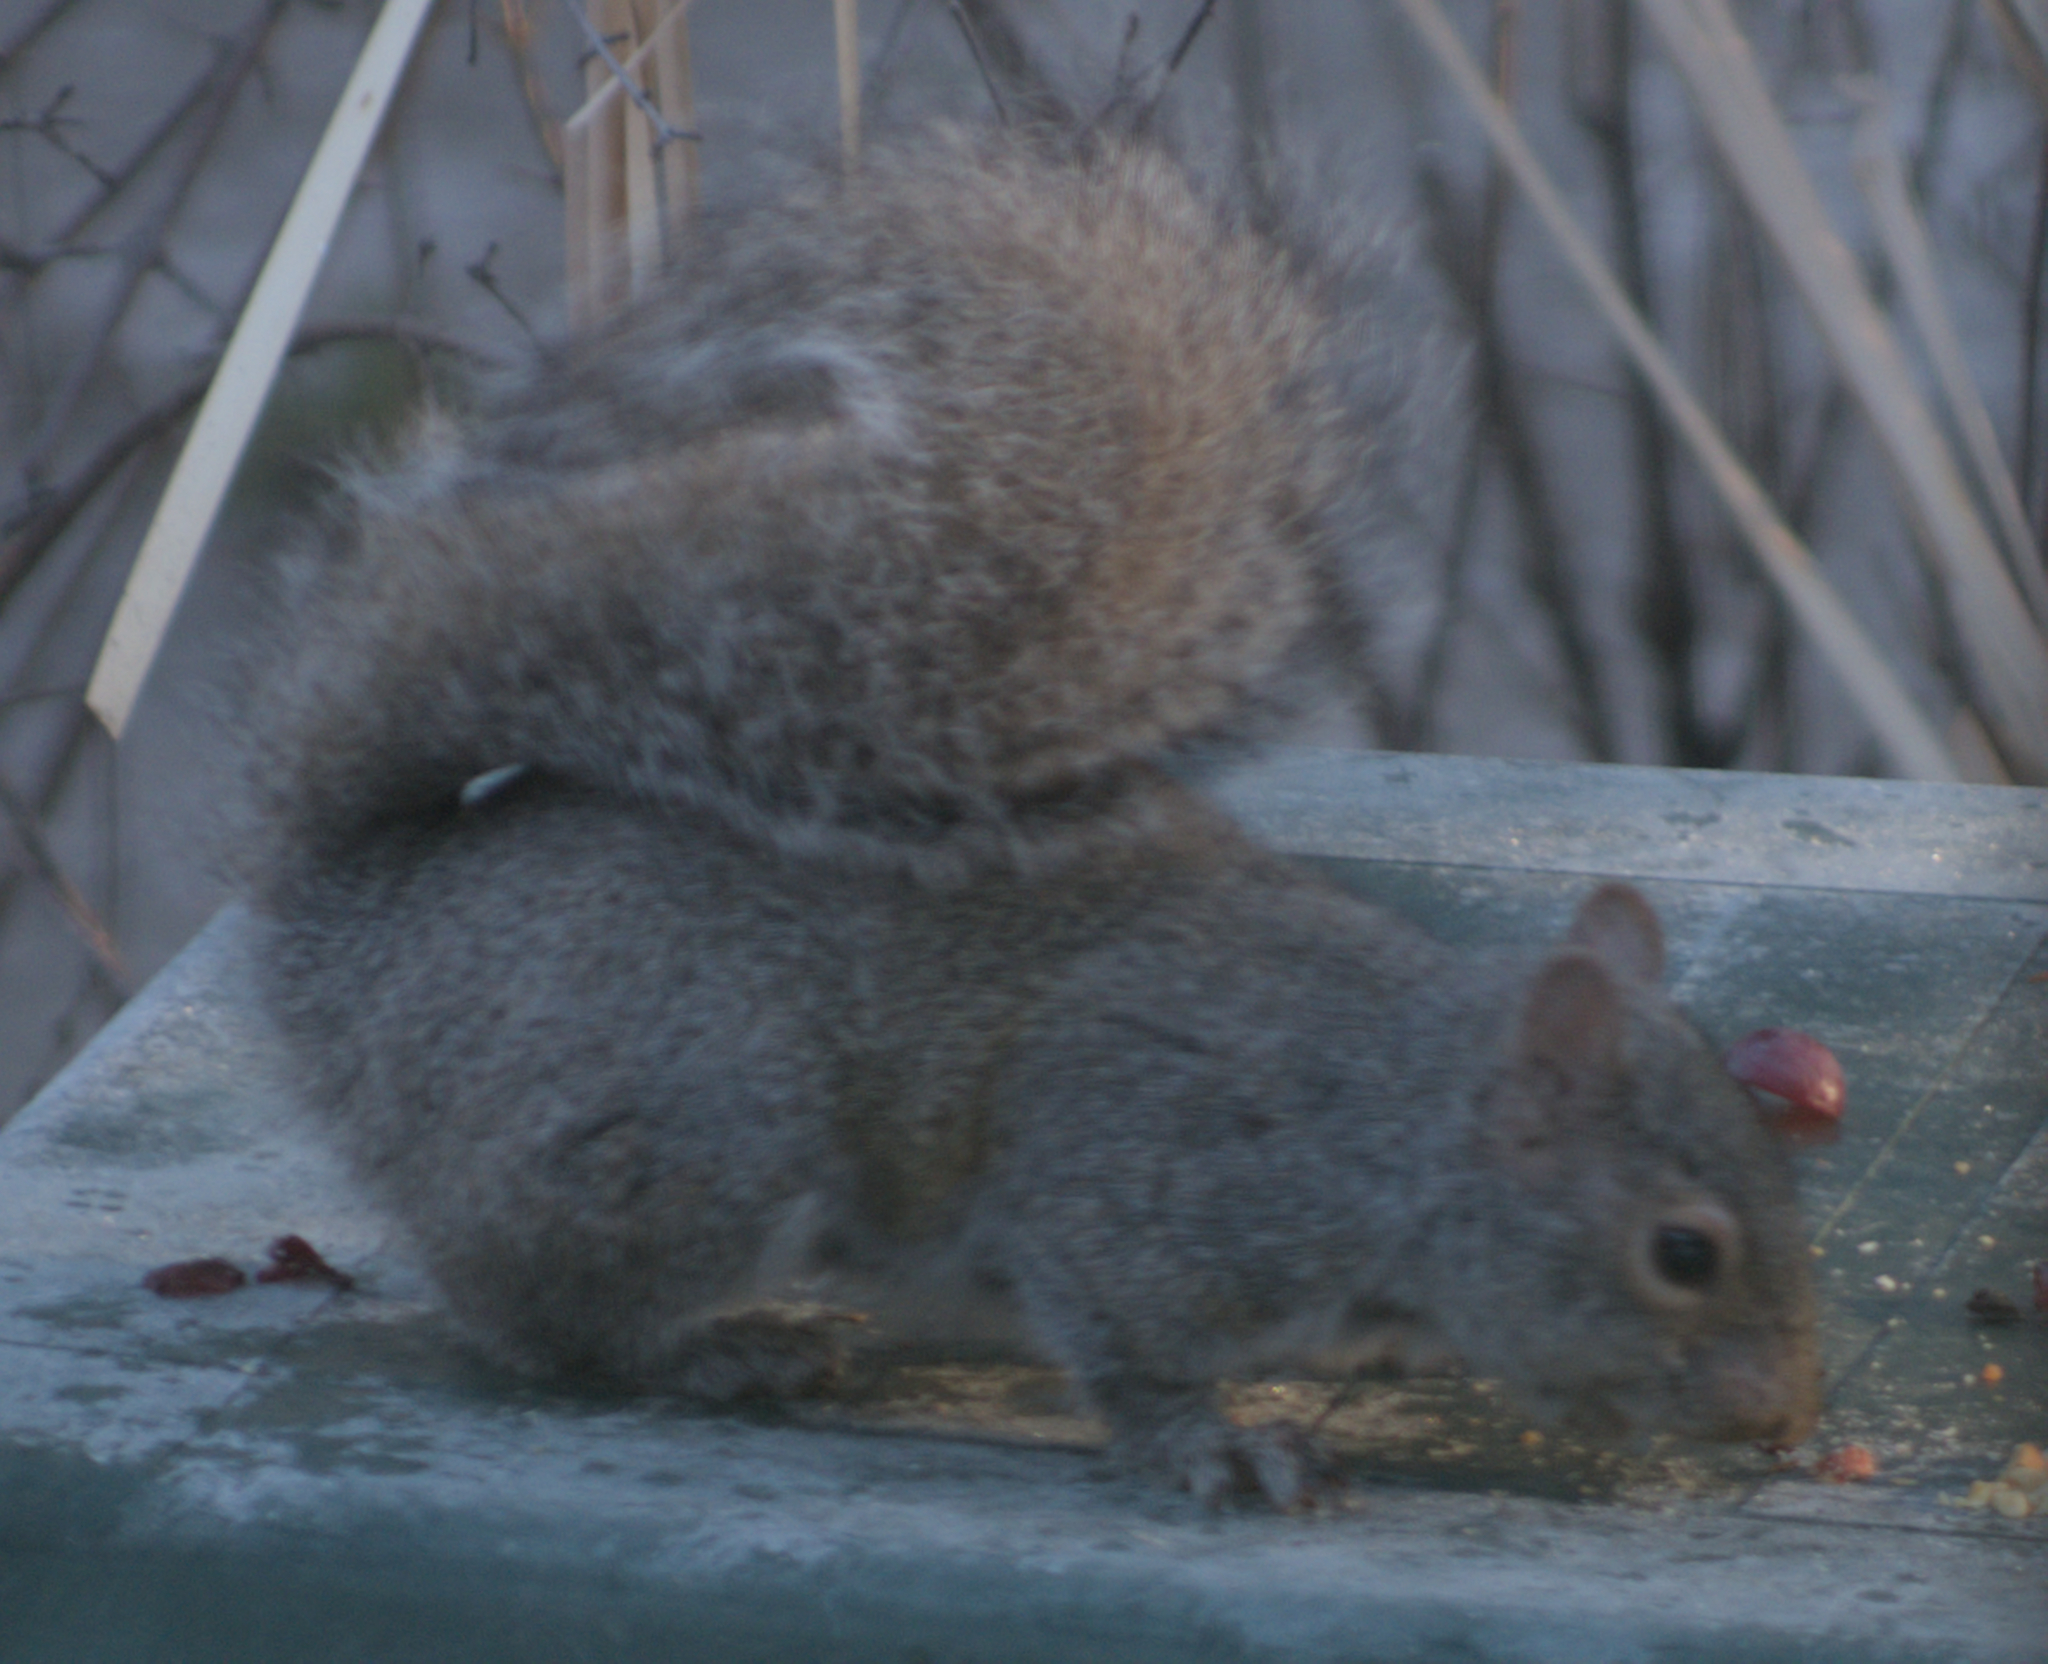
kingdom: Animalia
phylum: Chordata
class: Mammalia
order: Rodentia
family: Sciuridae
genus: Sciurus
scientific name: Sciurus carolinensis
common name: Eastern gray squirrel
